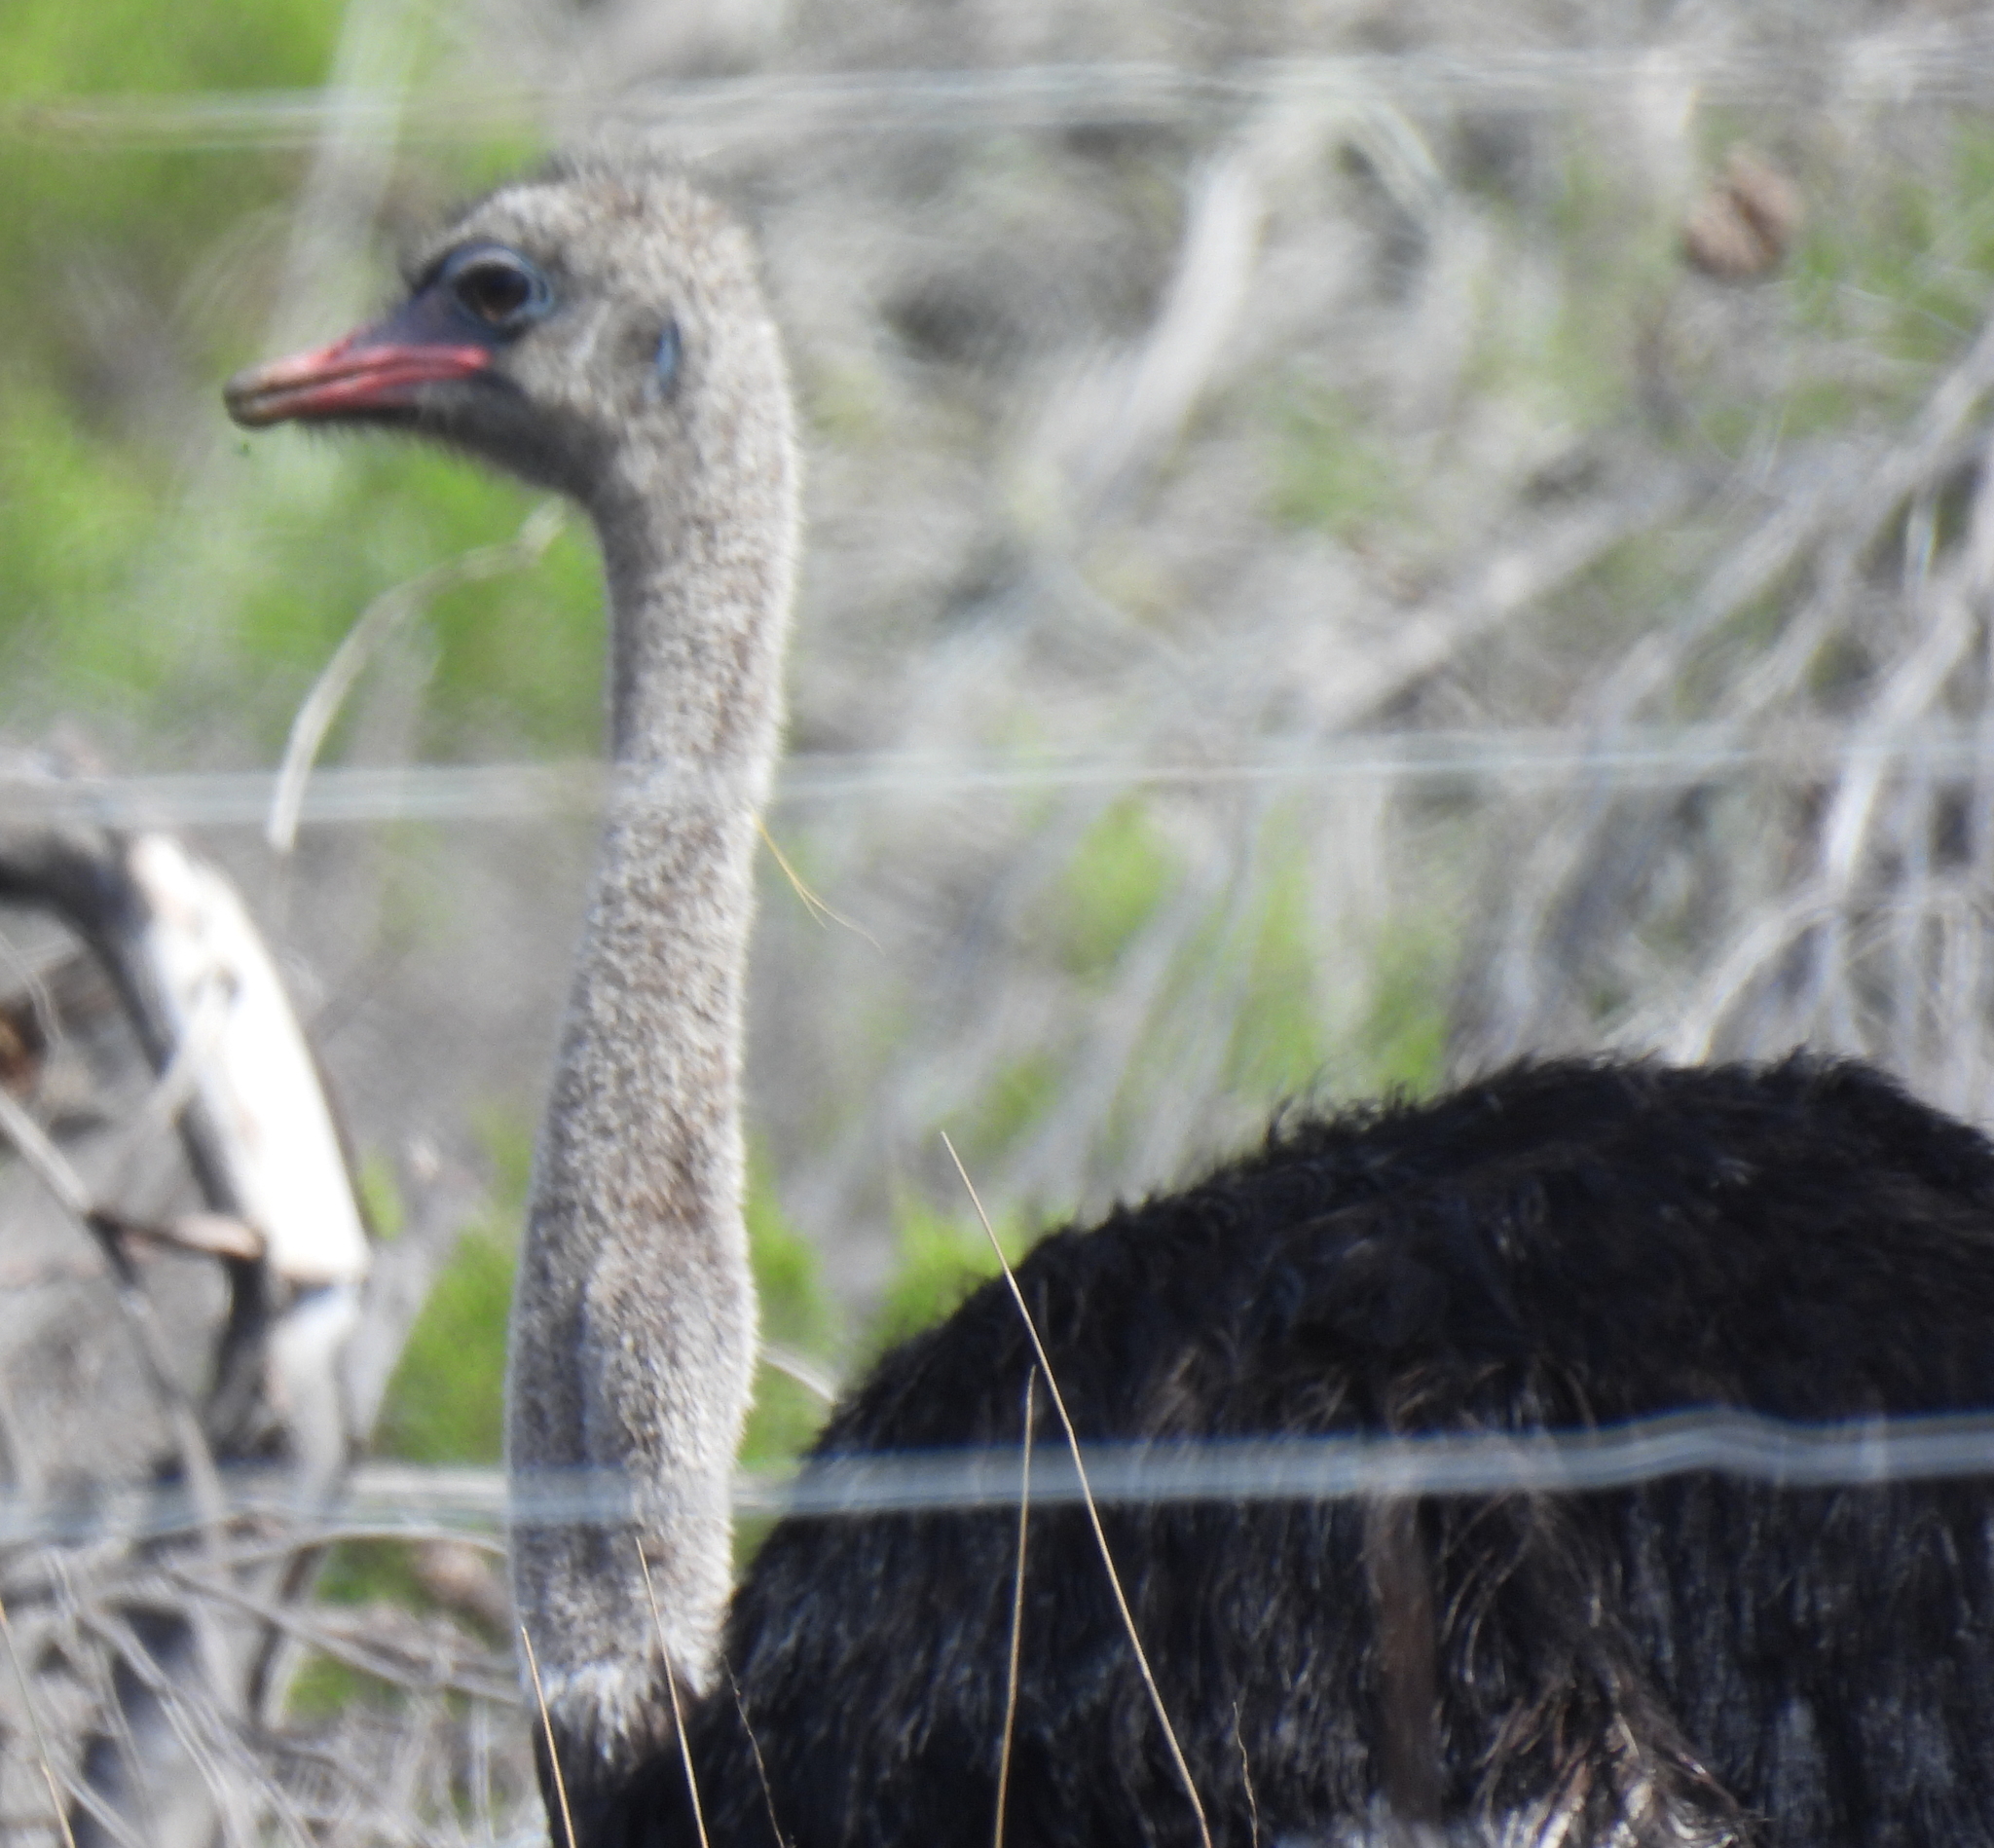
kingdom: Animalia
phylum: Chordata
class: Aves
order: Struthioniformes
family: Struthionidae
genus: Struthio
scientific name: Struthio camelus
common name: Common ostrich
